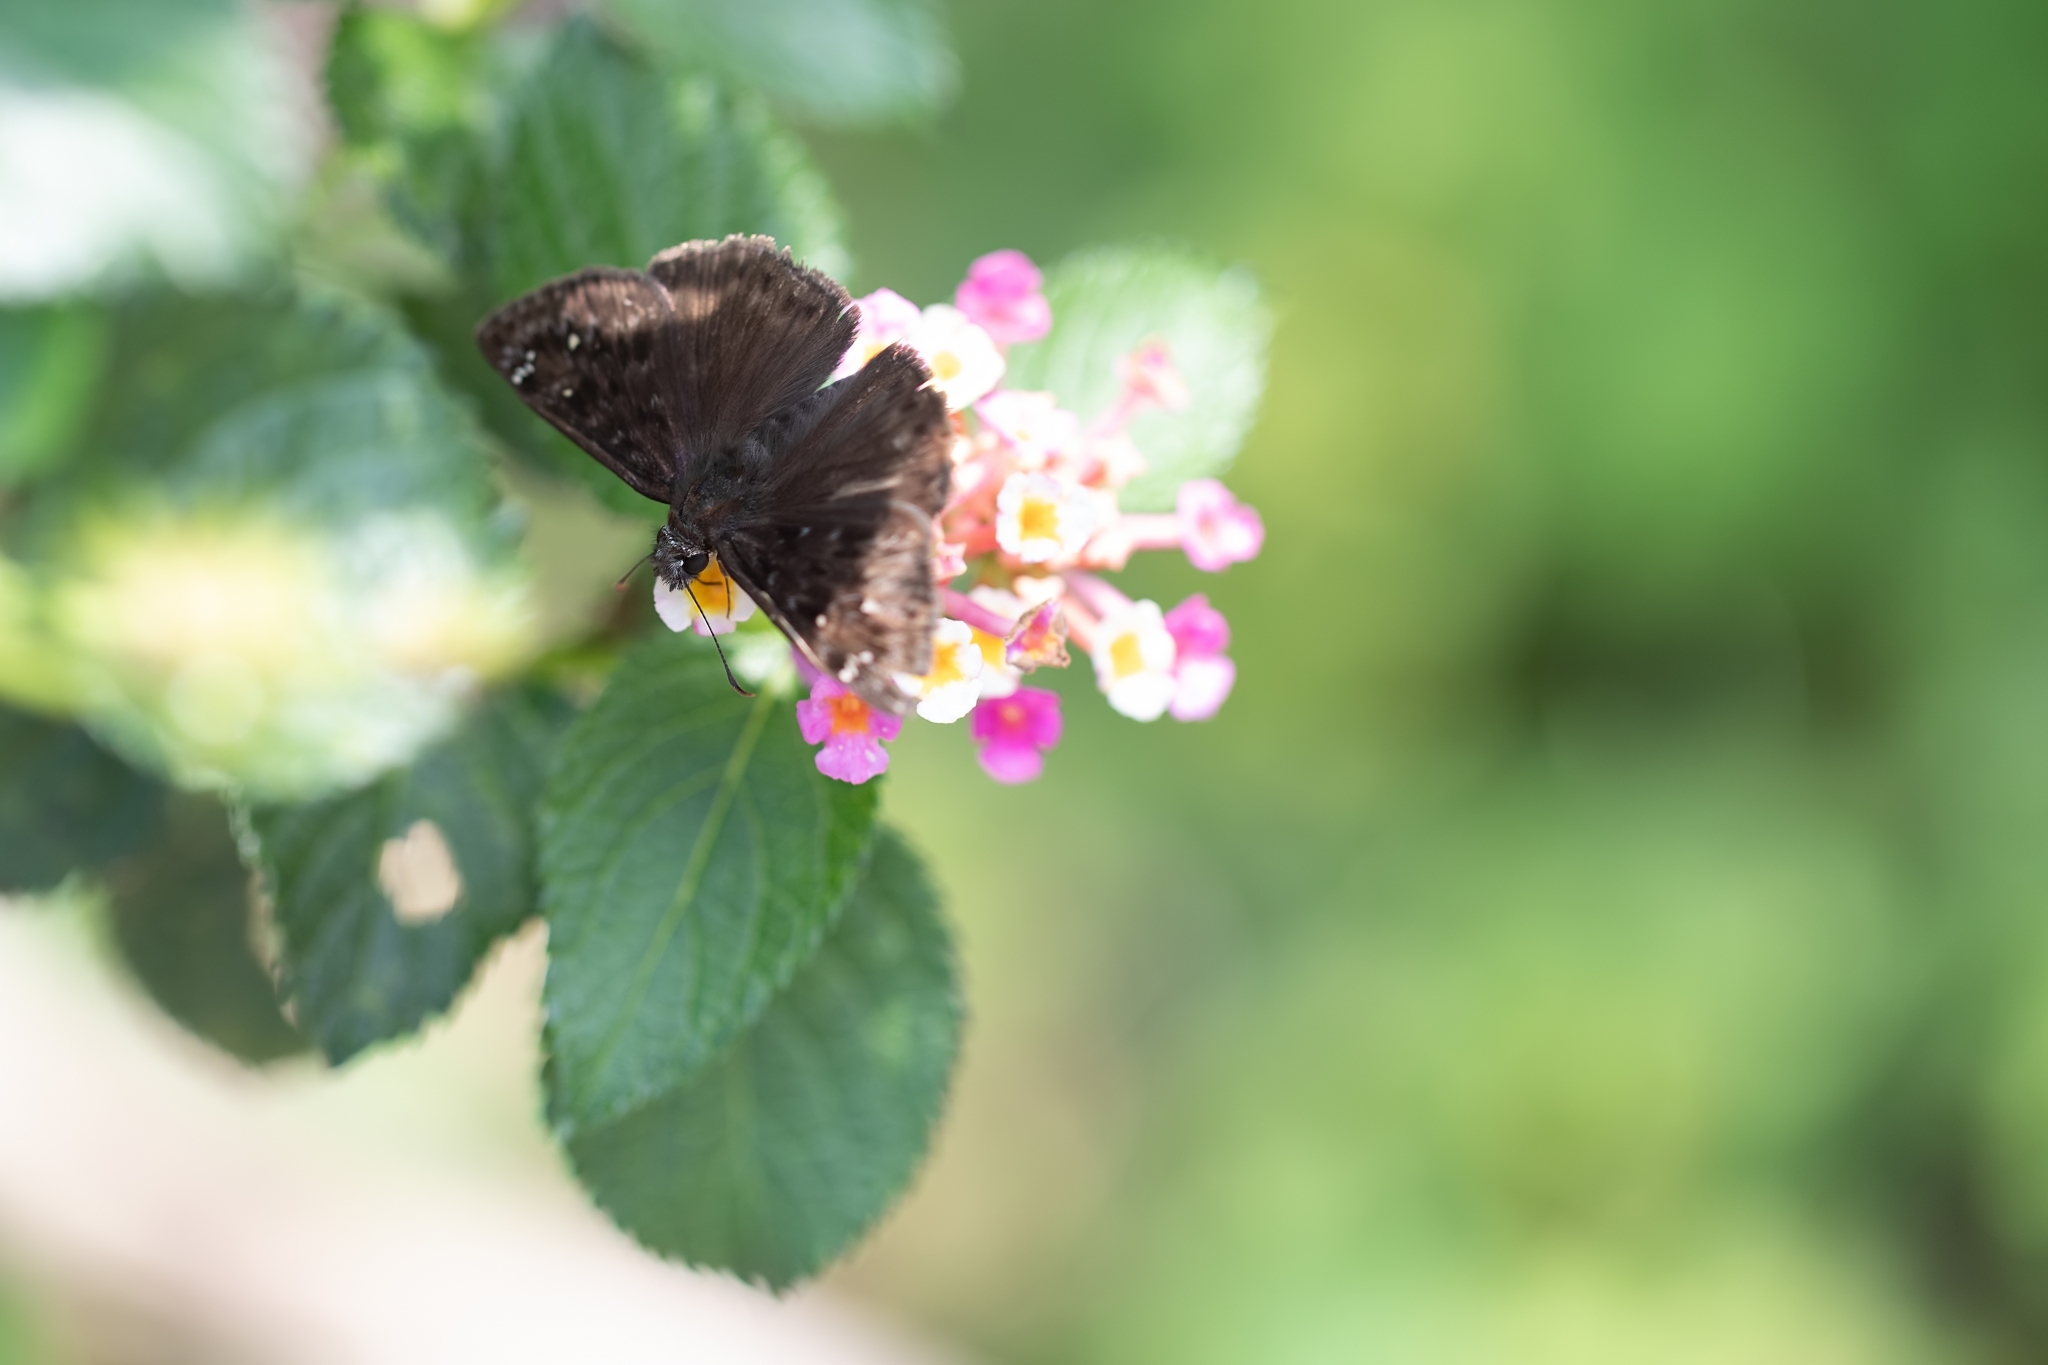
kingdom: Animalia
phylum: Arthropoda
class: Insecta
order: Lepidoptera
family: Hesperiidae
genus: Erynnis
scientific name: Erynnis horatius
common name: Horace's duskywing
